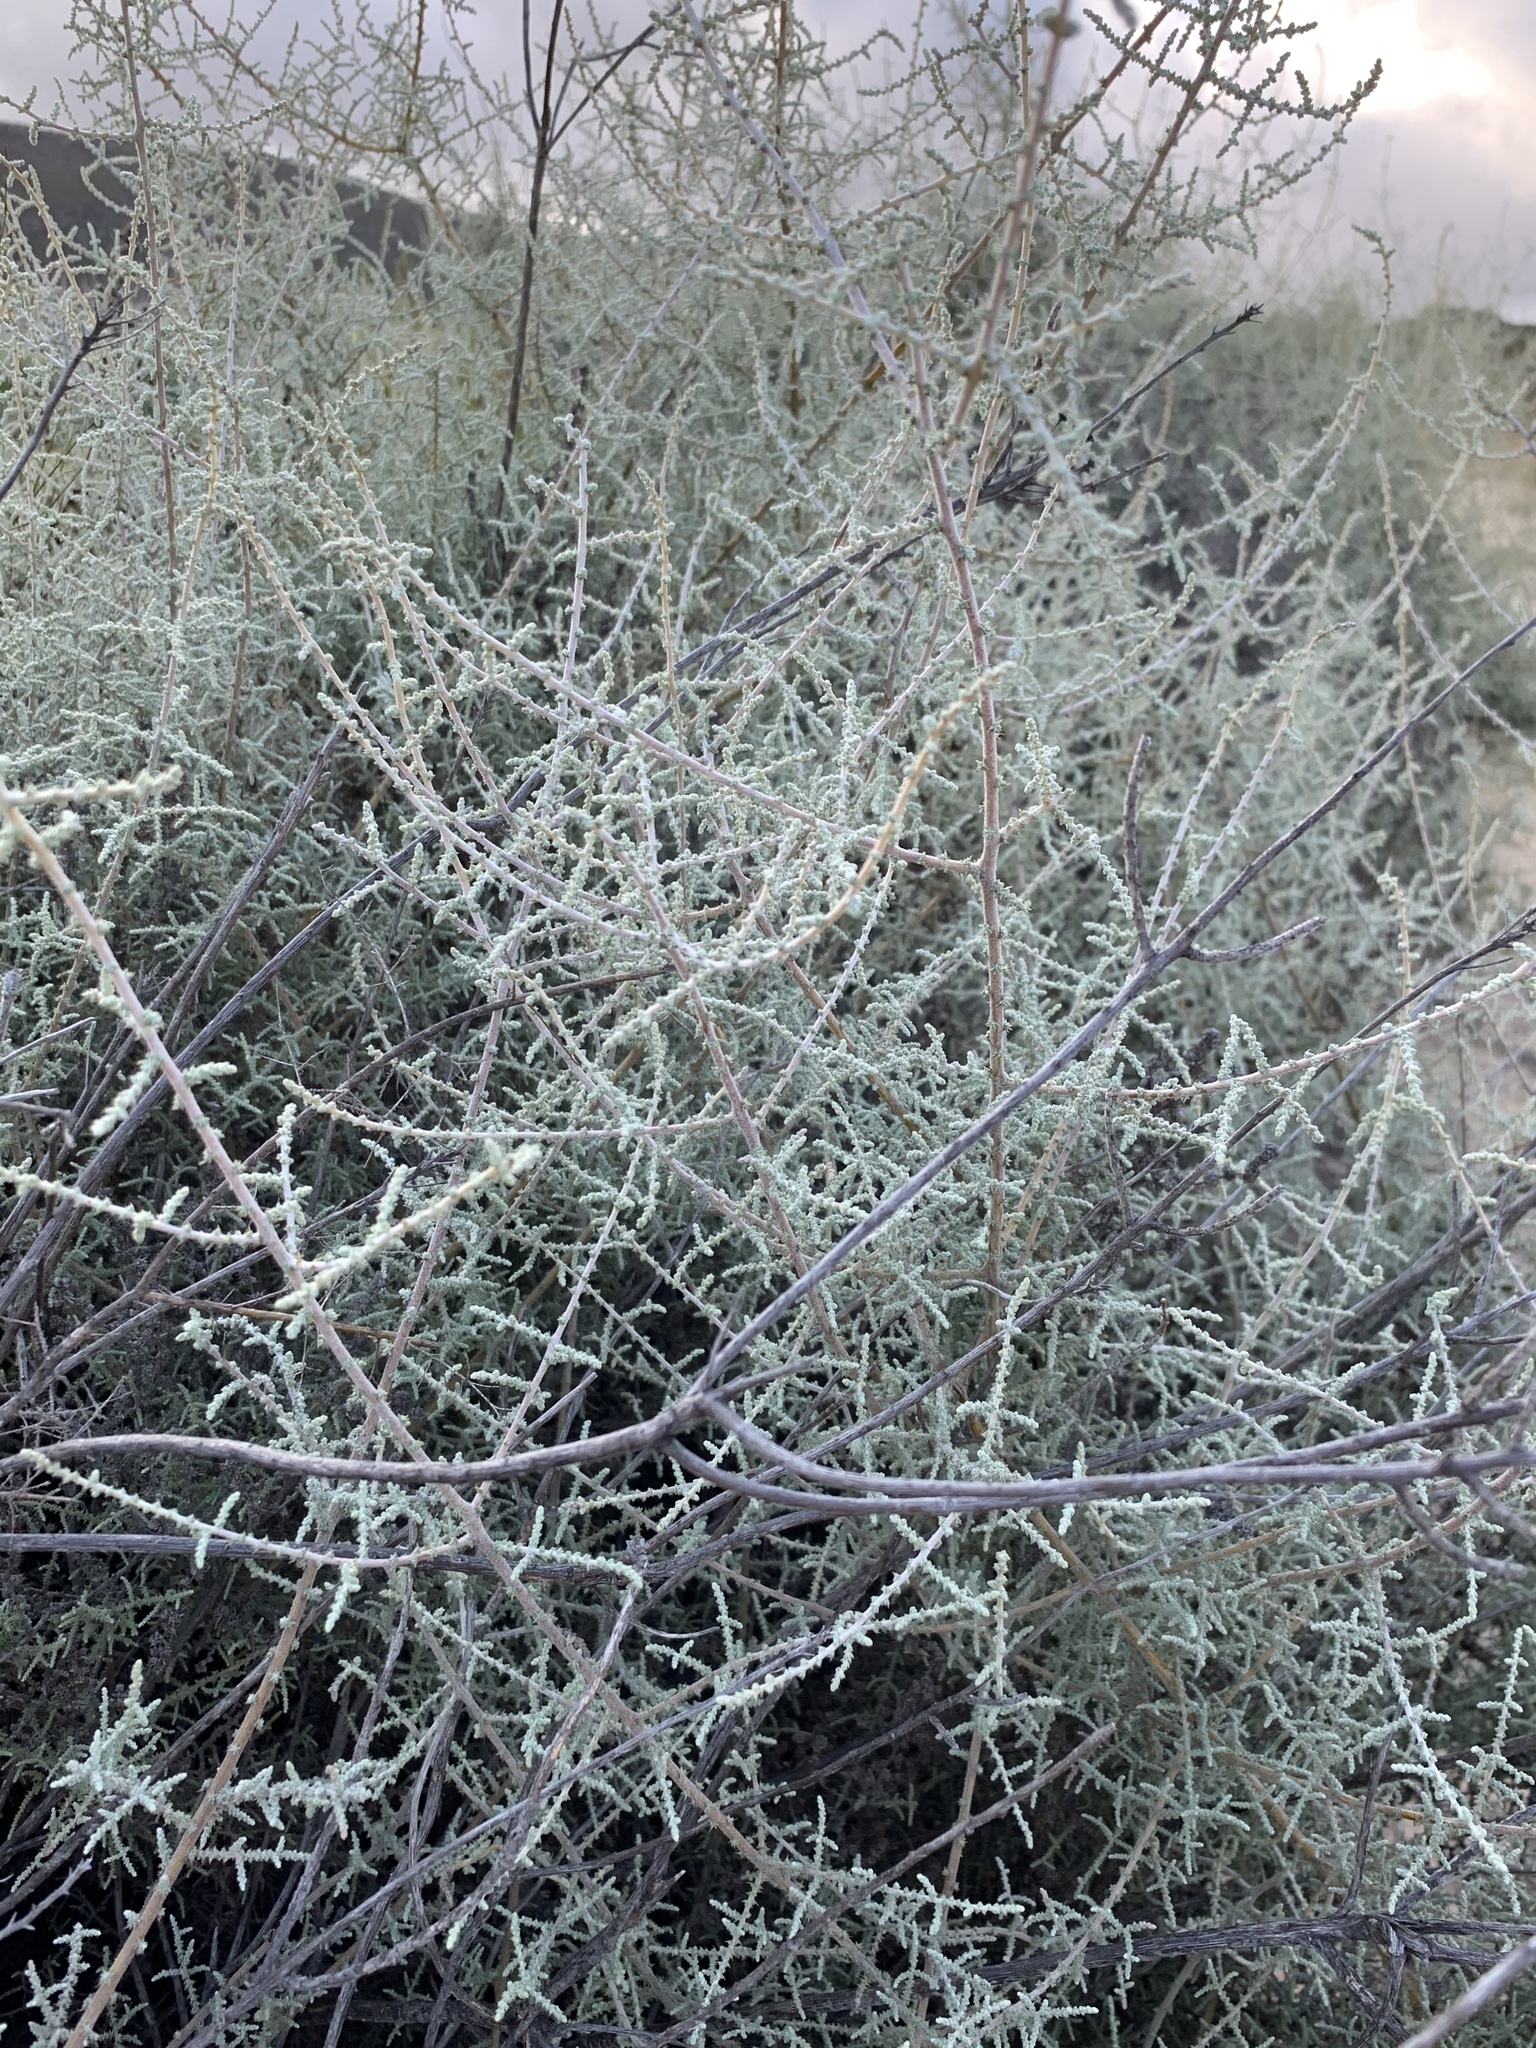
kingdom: Plantae
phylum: Tracheophyta
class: Magnoliopsida
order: Asterales
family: Asteraceae
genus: Seriphium
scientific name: Seriphium plumosum
